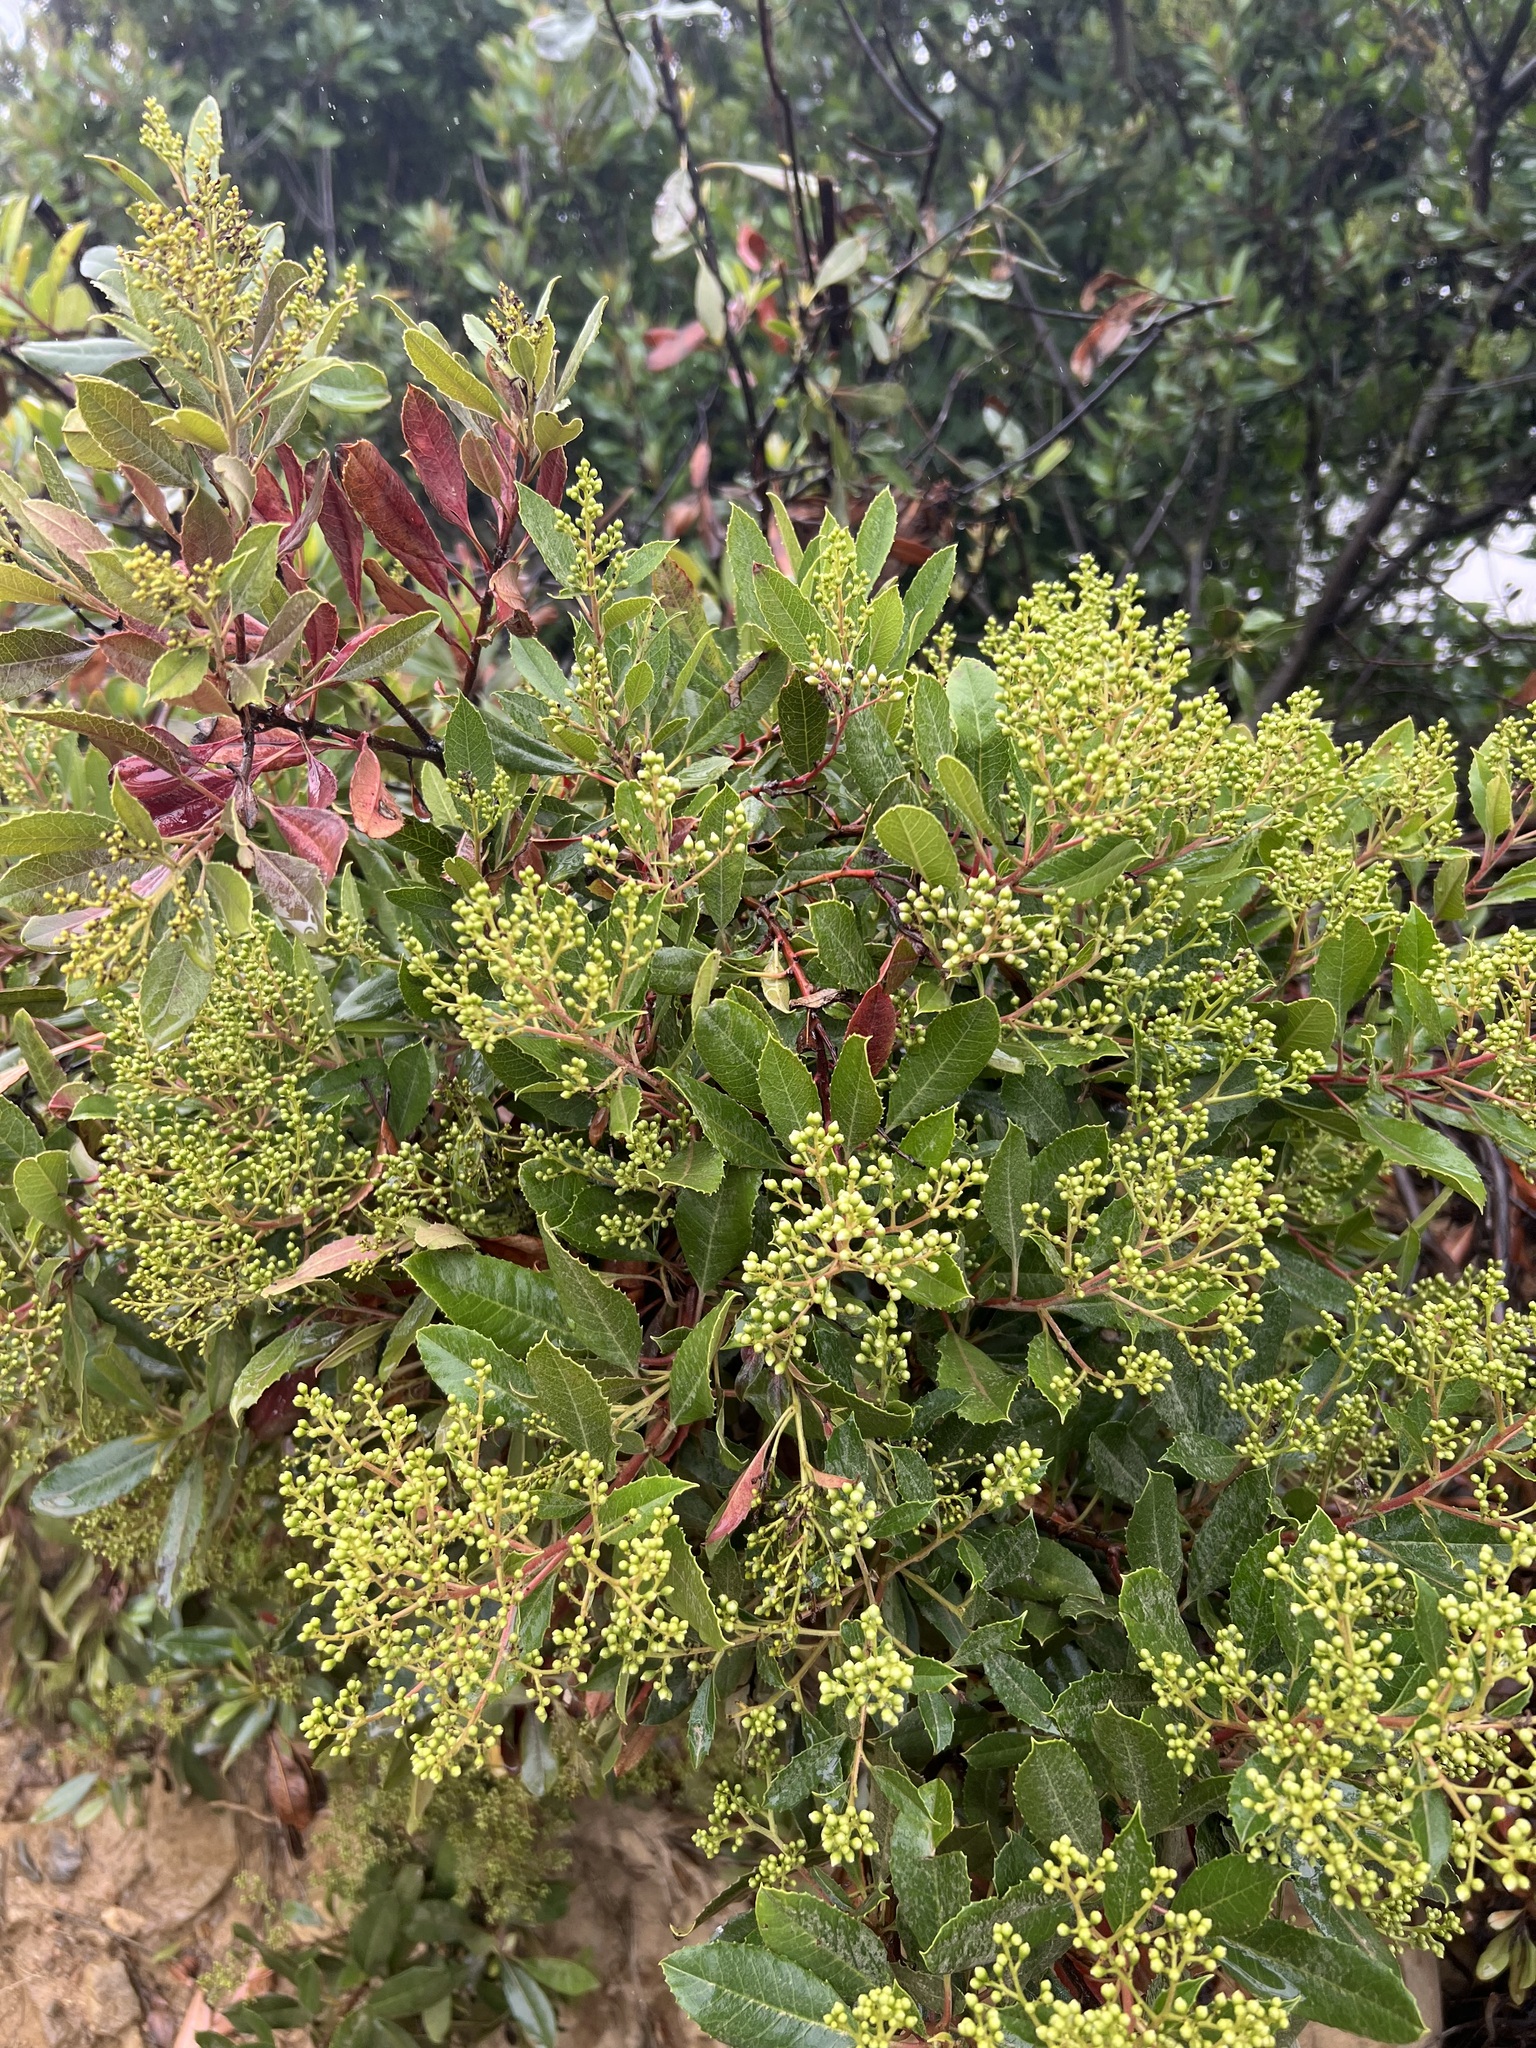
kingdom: Plantae
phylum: Tracheophyta
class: Magnoliopsida
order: Rosales
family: Rosaceae
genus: Heteromeles
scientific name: Heteromeles arbutifolia
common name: California-holly
